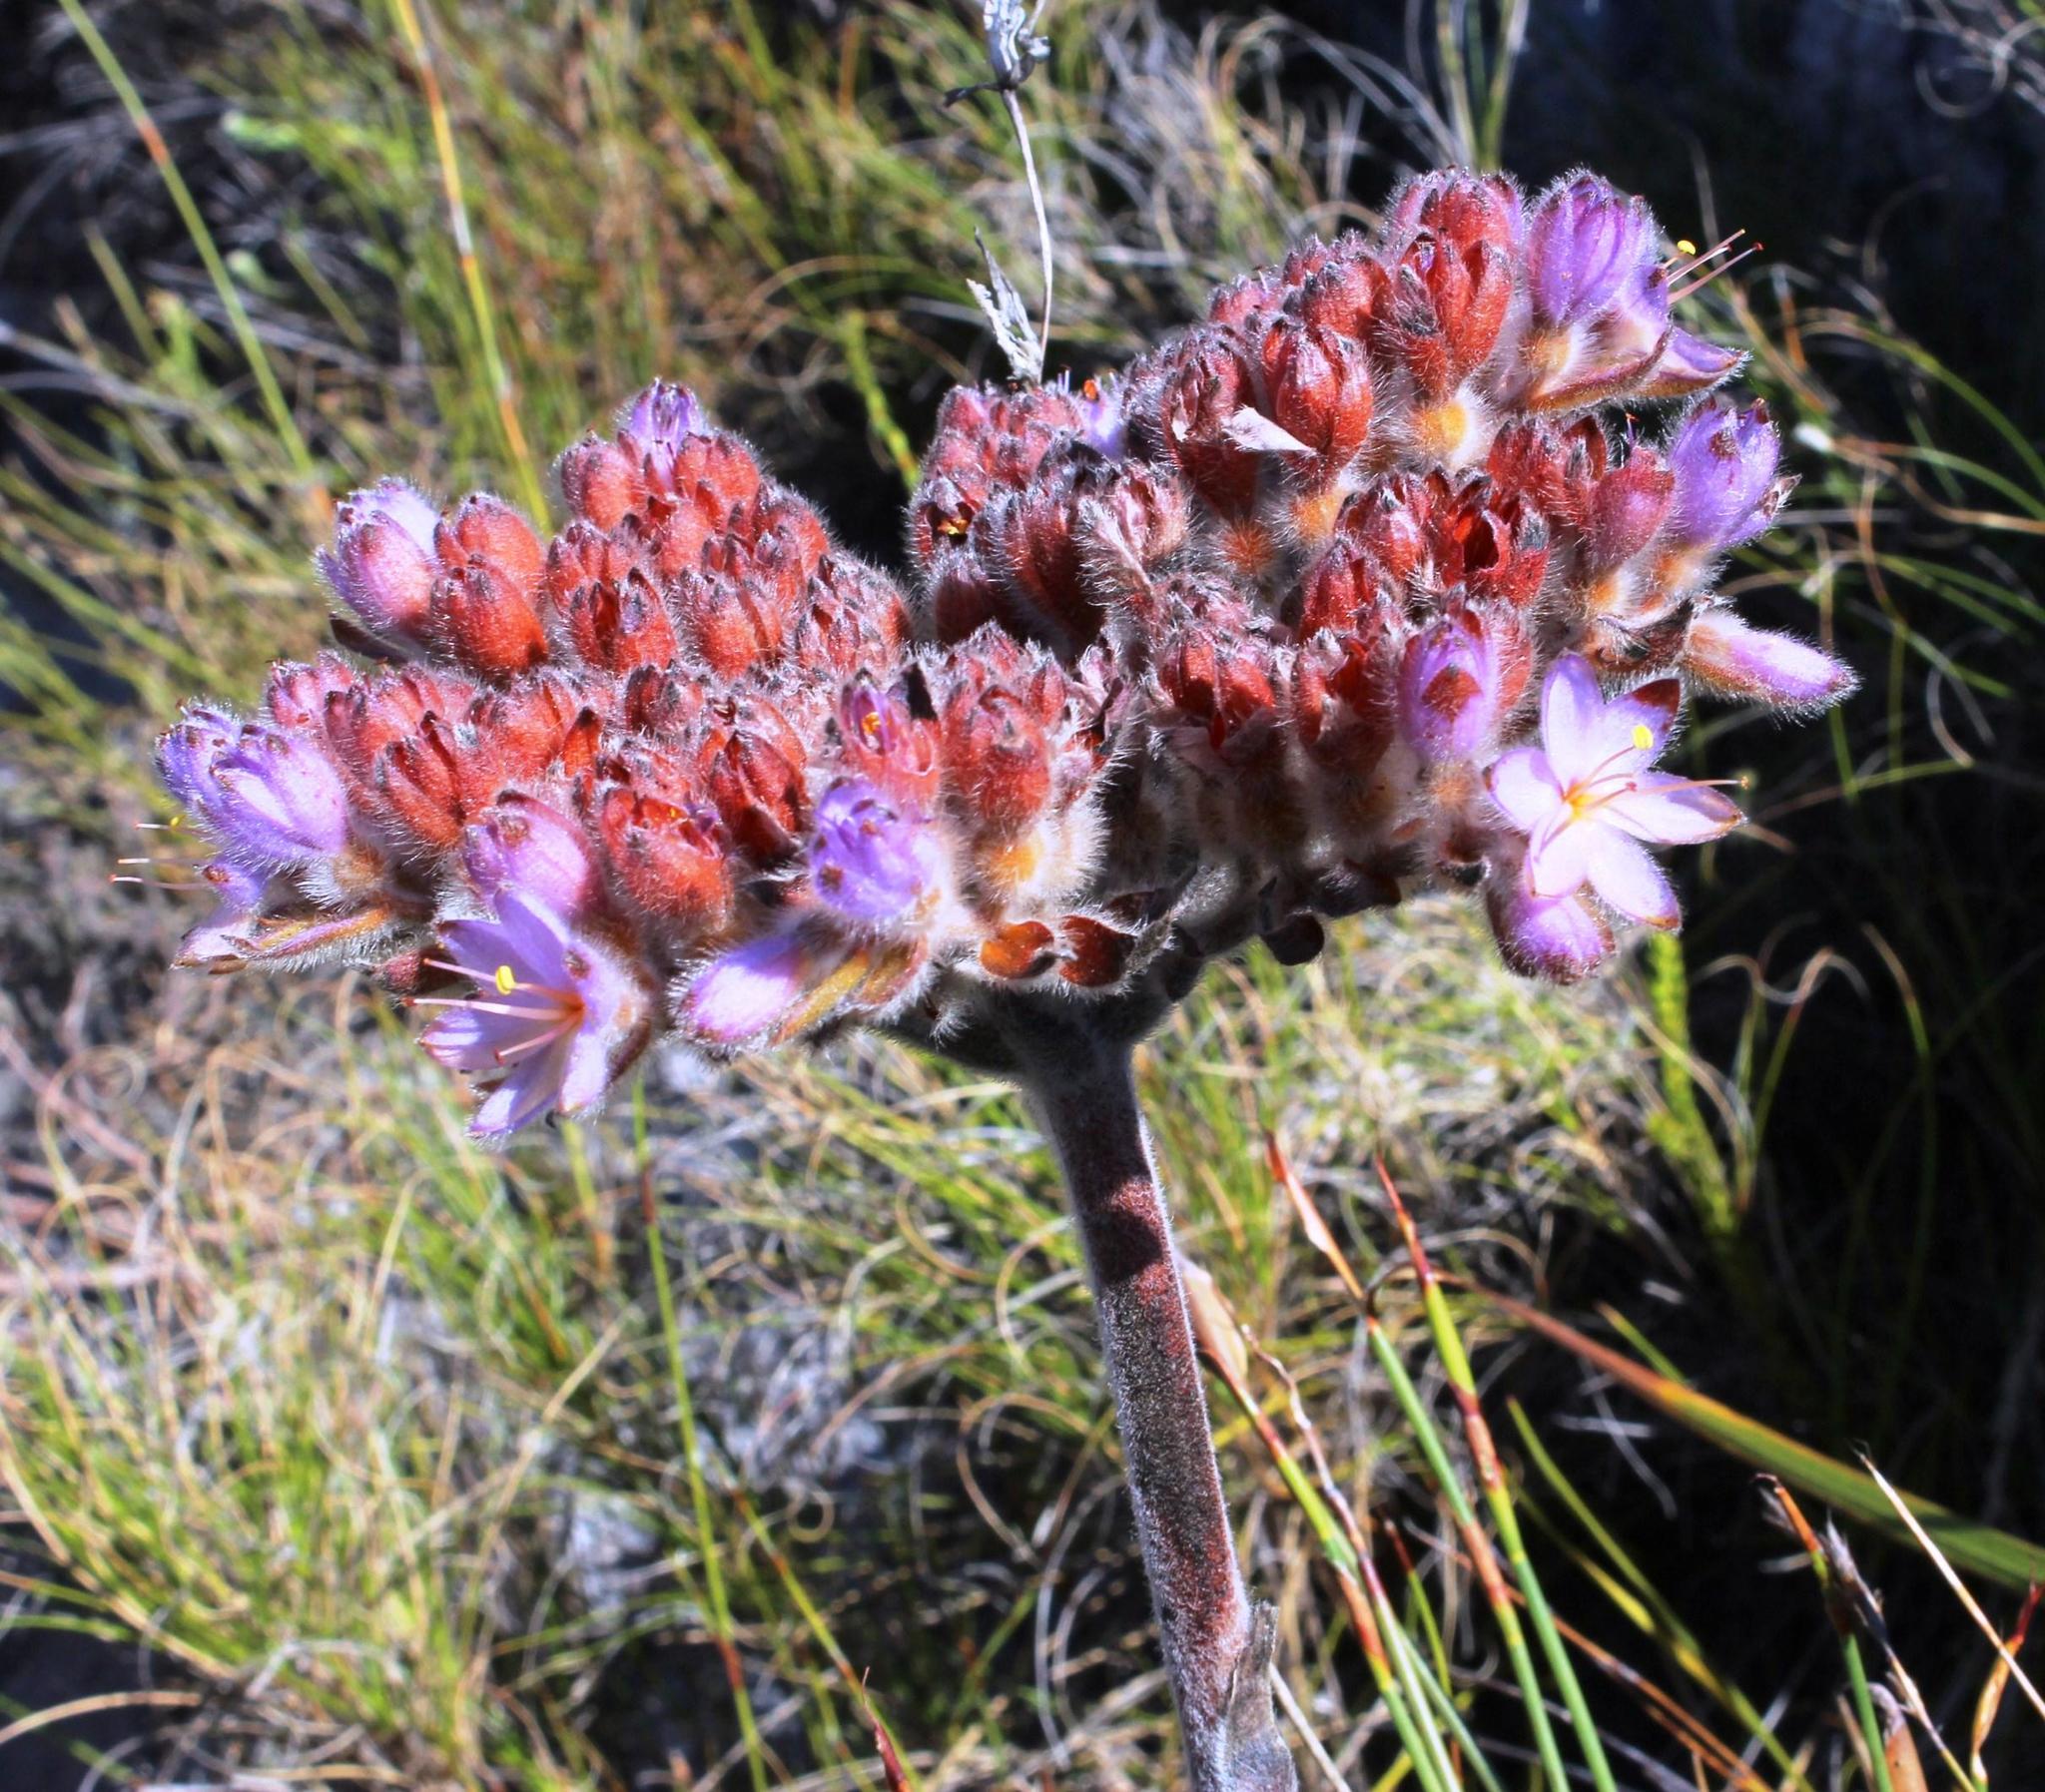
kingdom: Plantae
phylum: Tracheophyta
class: Liliopsida
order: Commelinales
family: Haemodoraceae
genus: Dilatris
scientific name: Dilatris pillansii
